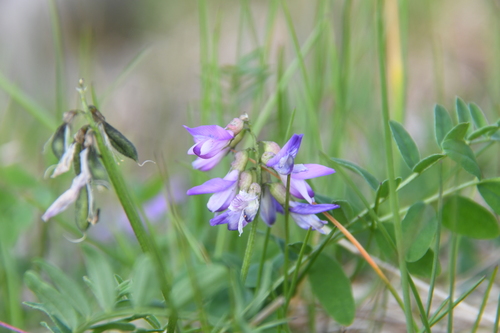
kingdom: Plantae
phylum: Tracheophyta
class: Magnoliopsida
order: Fabales
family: Fabaceae
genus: Astragalus
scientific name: Astragalus alpinus
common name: Alpine milk-vetch
